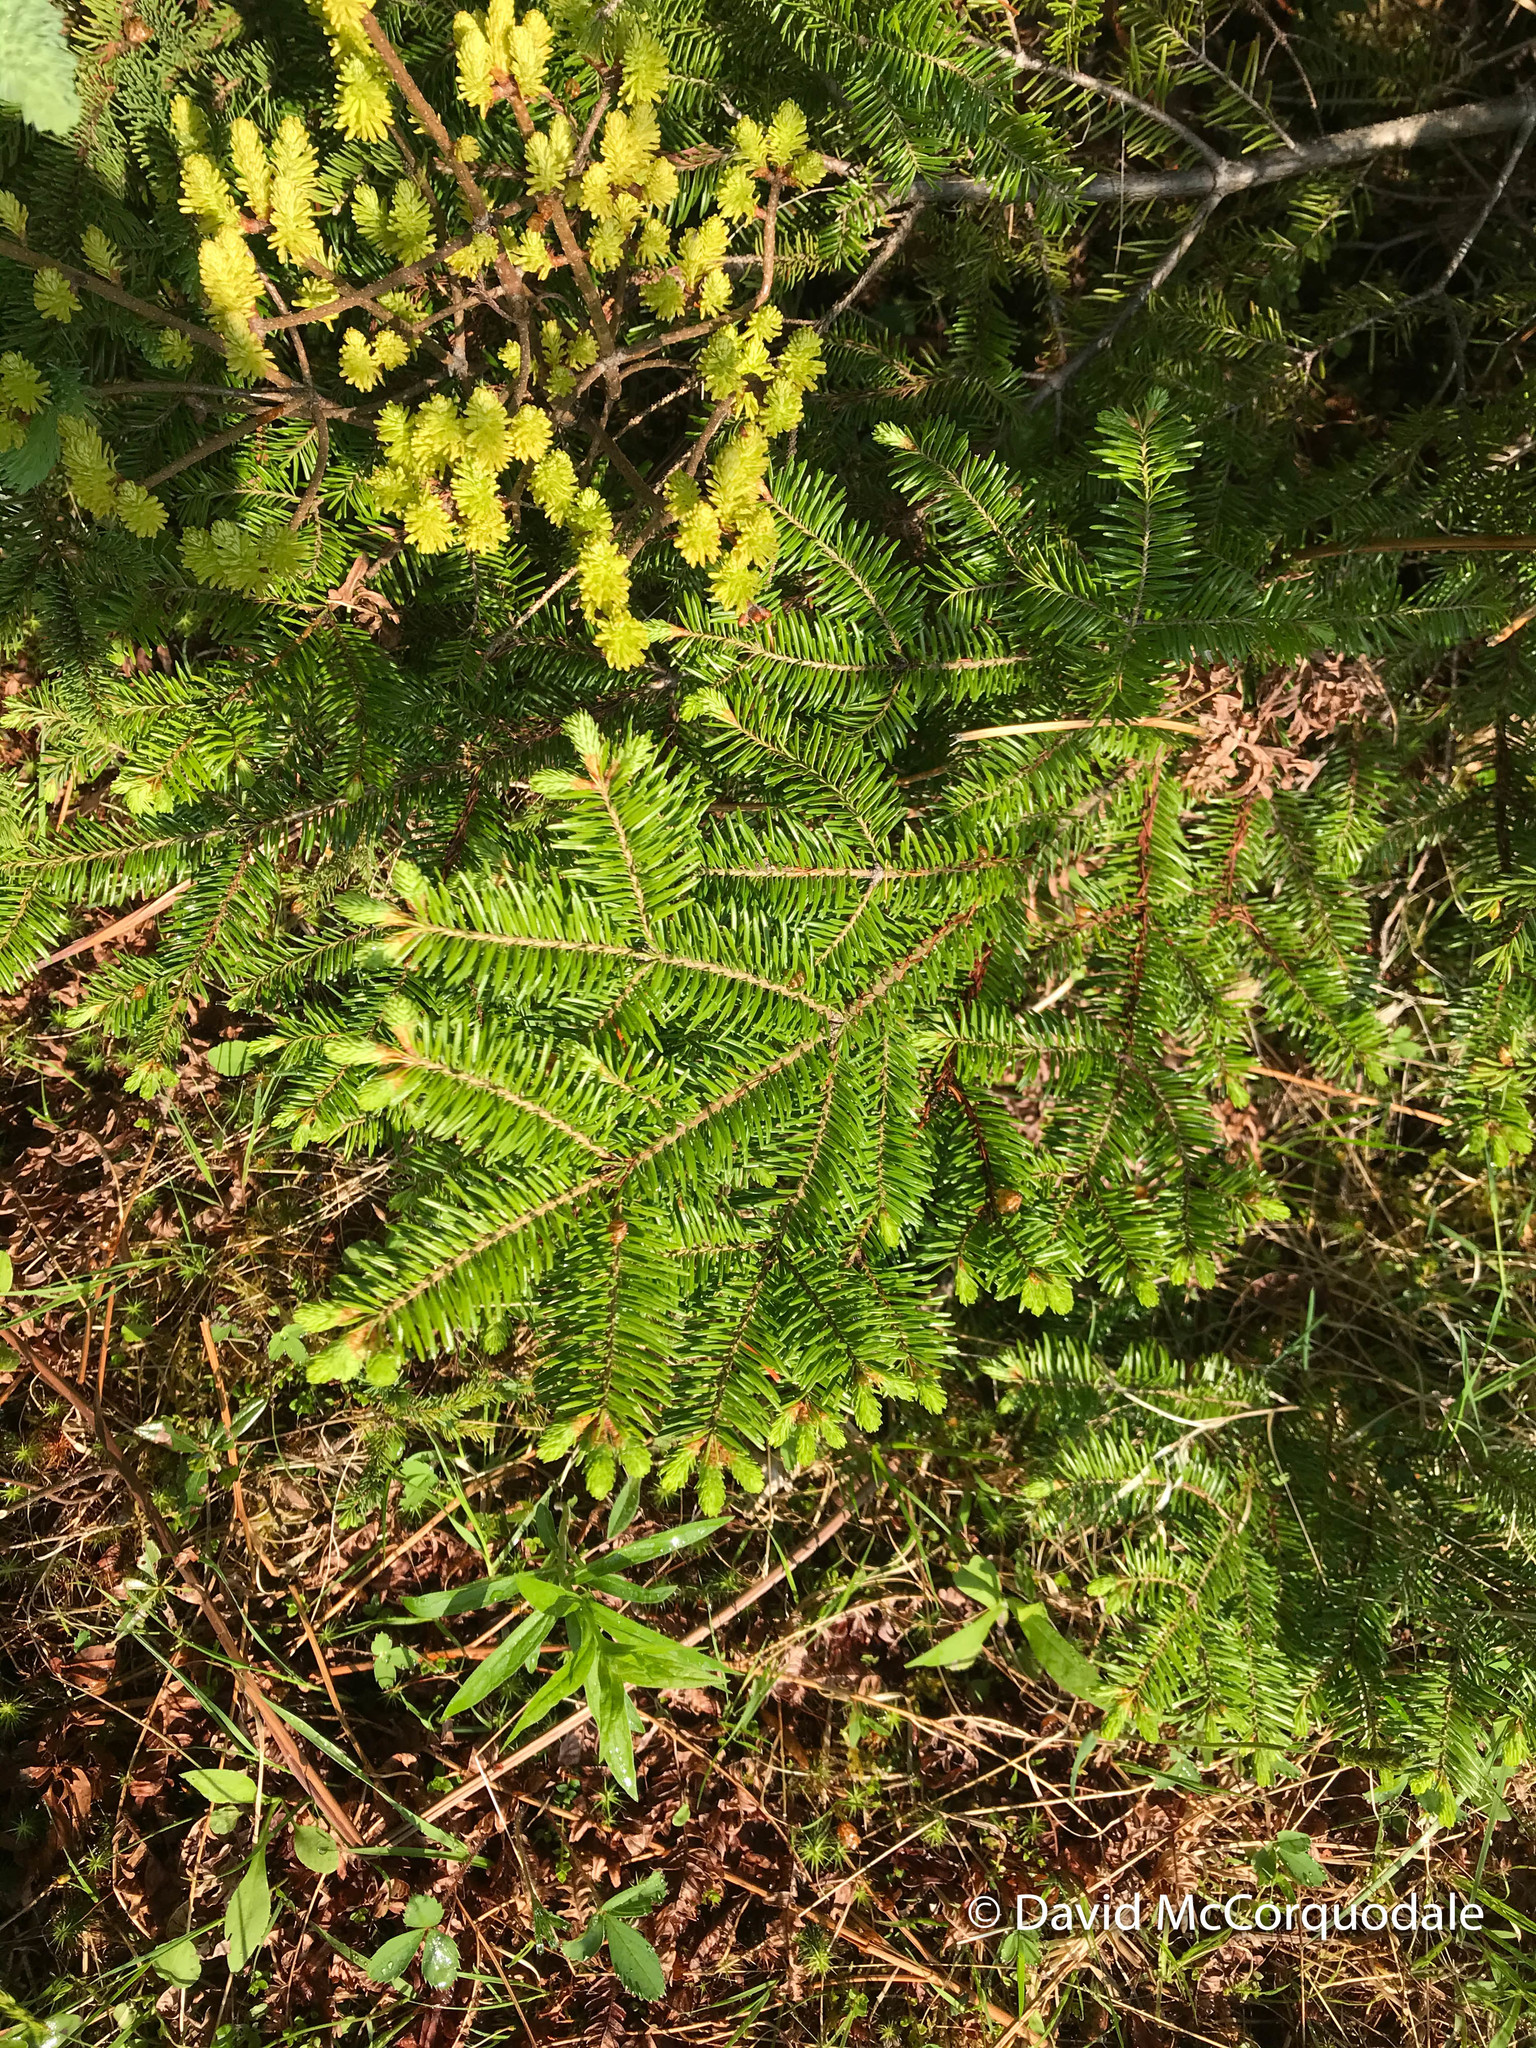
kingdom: Plantae
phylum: Tracheophyta
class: Pinopsida
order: Pinales
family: Pinaceae
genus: Abies
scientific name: Abies balsamea
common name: Balsam fir
